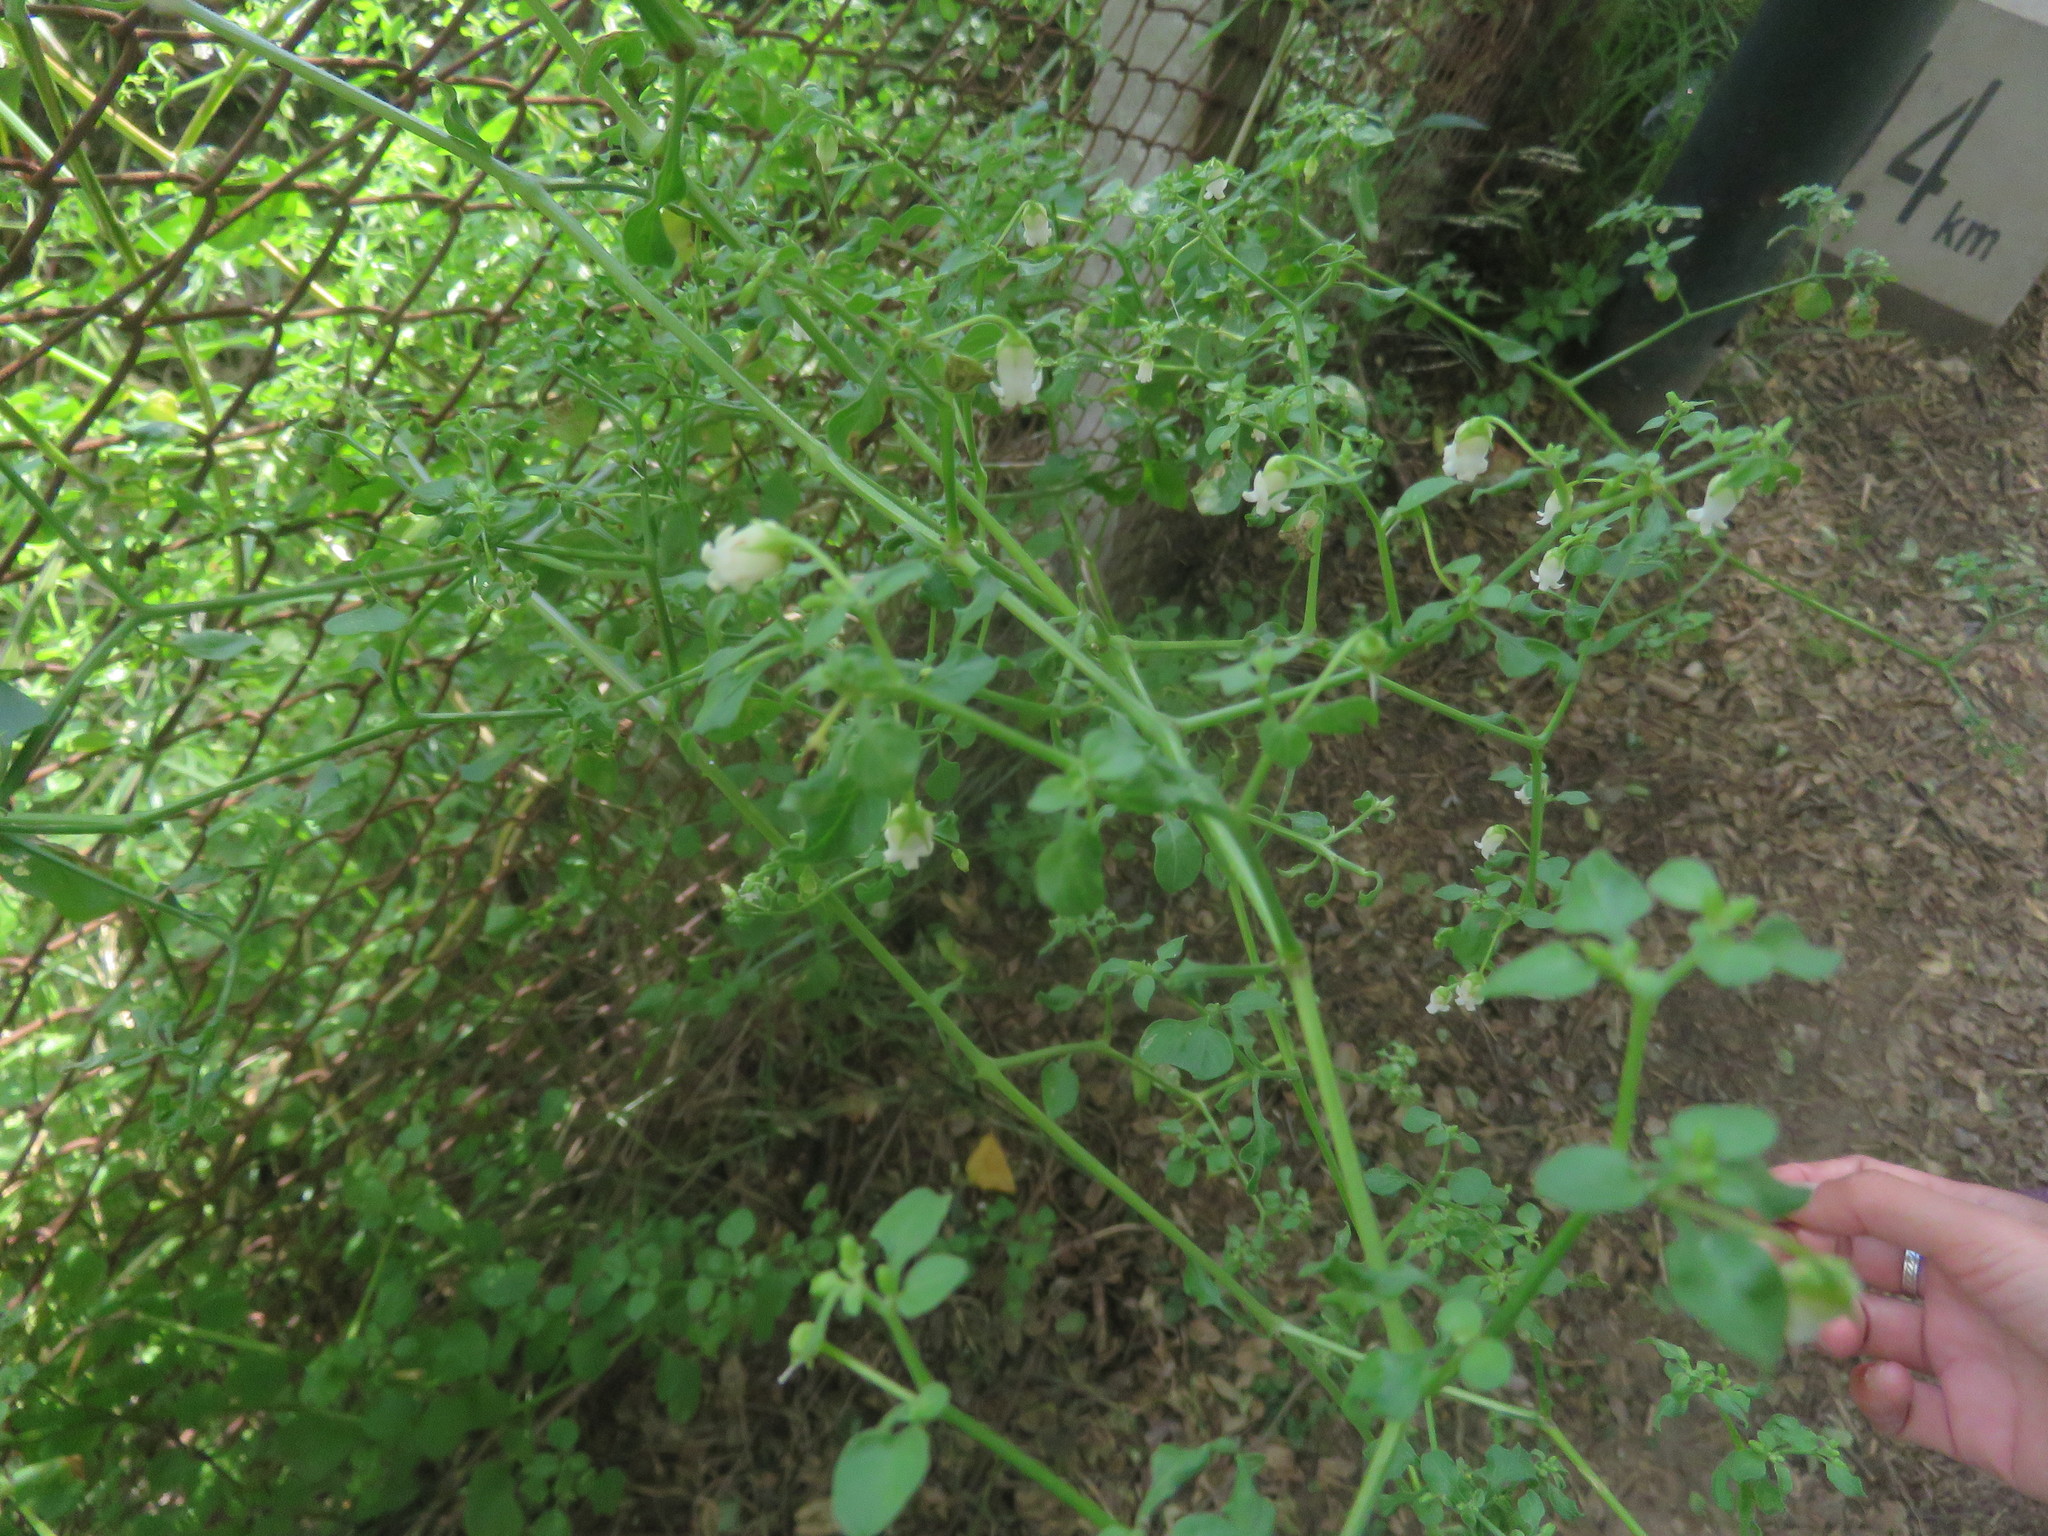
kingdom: Plantae
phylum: Tracheophyta
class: Magnoliopsida
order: Solanales
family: Solanaceae
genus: Salpichroa
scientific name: Salpichroa origanifolia
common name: Lily-of-the-valley-vine
